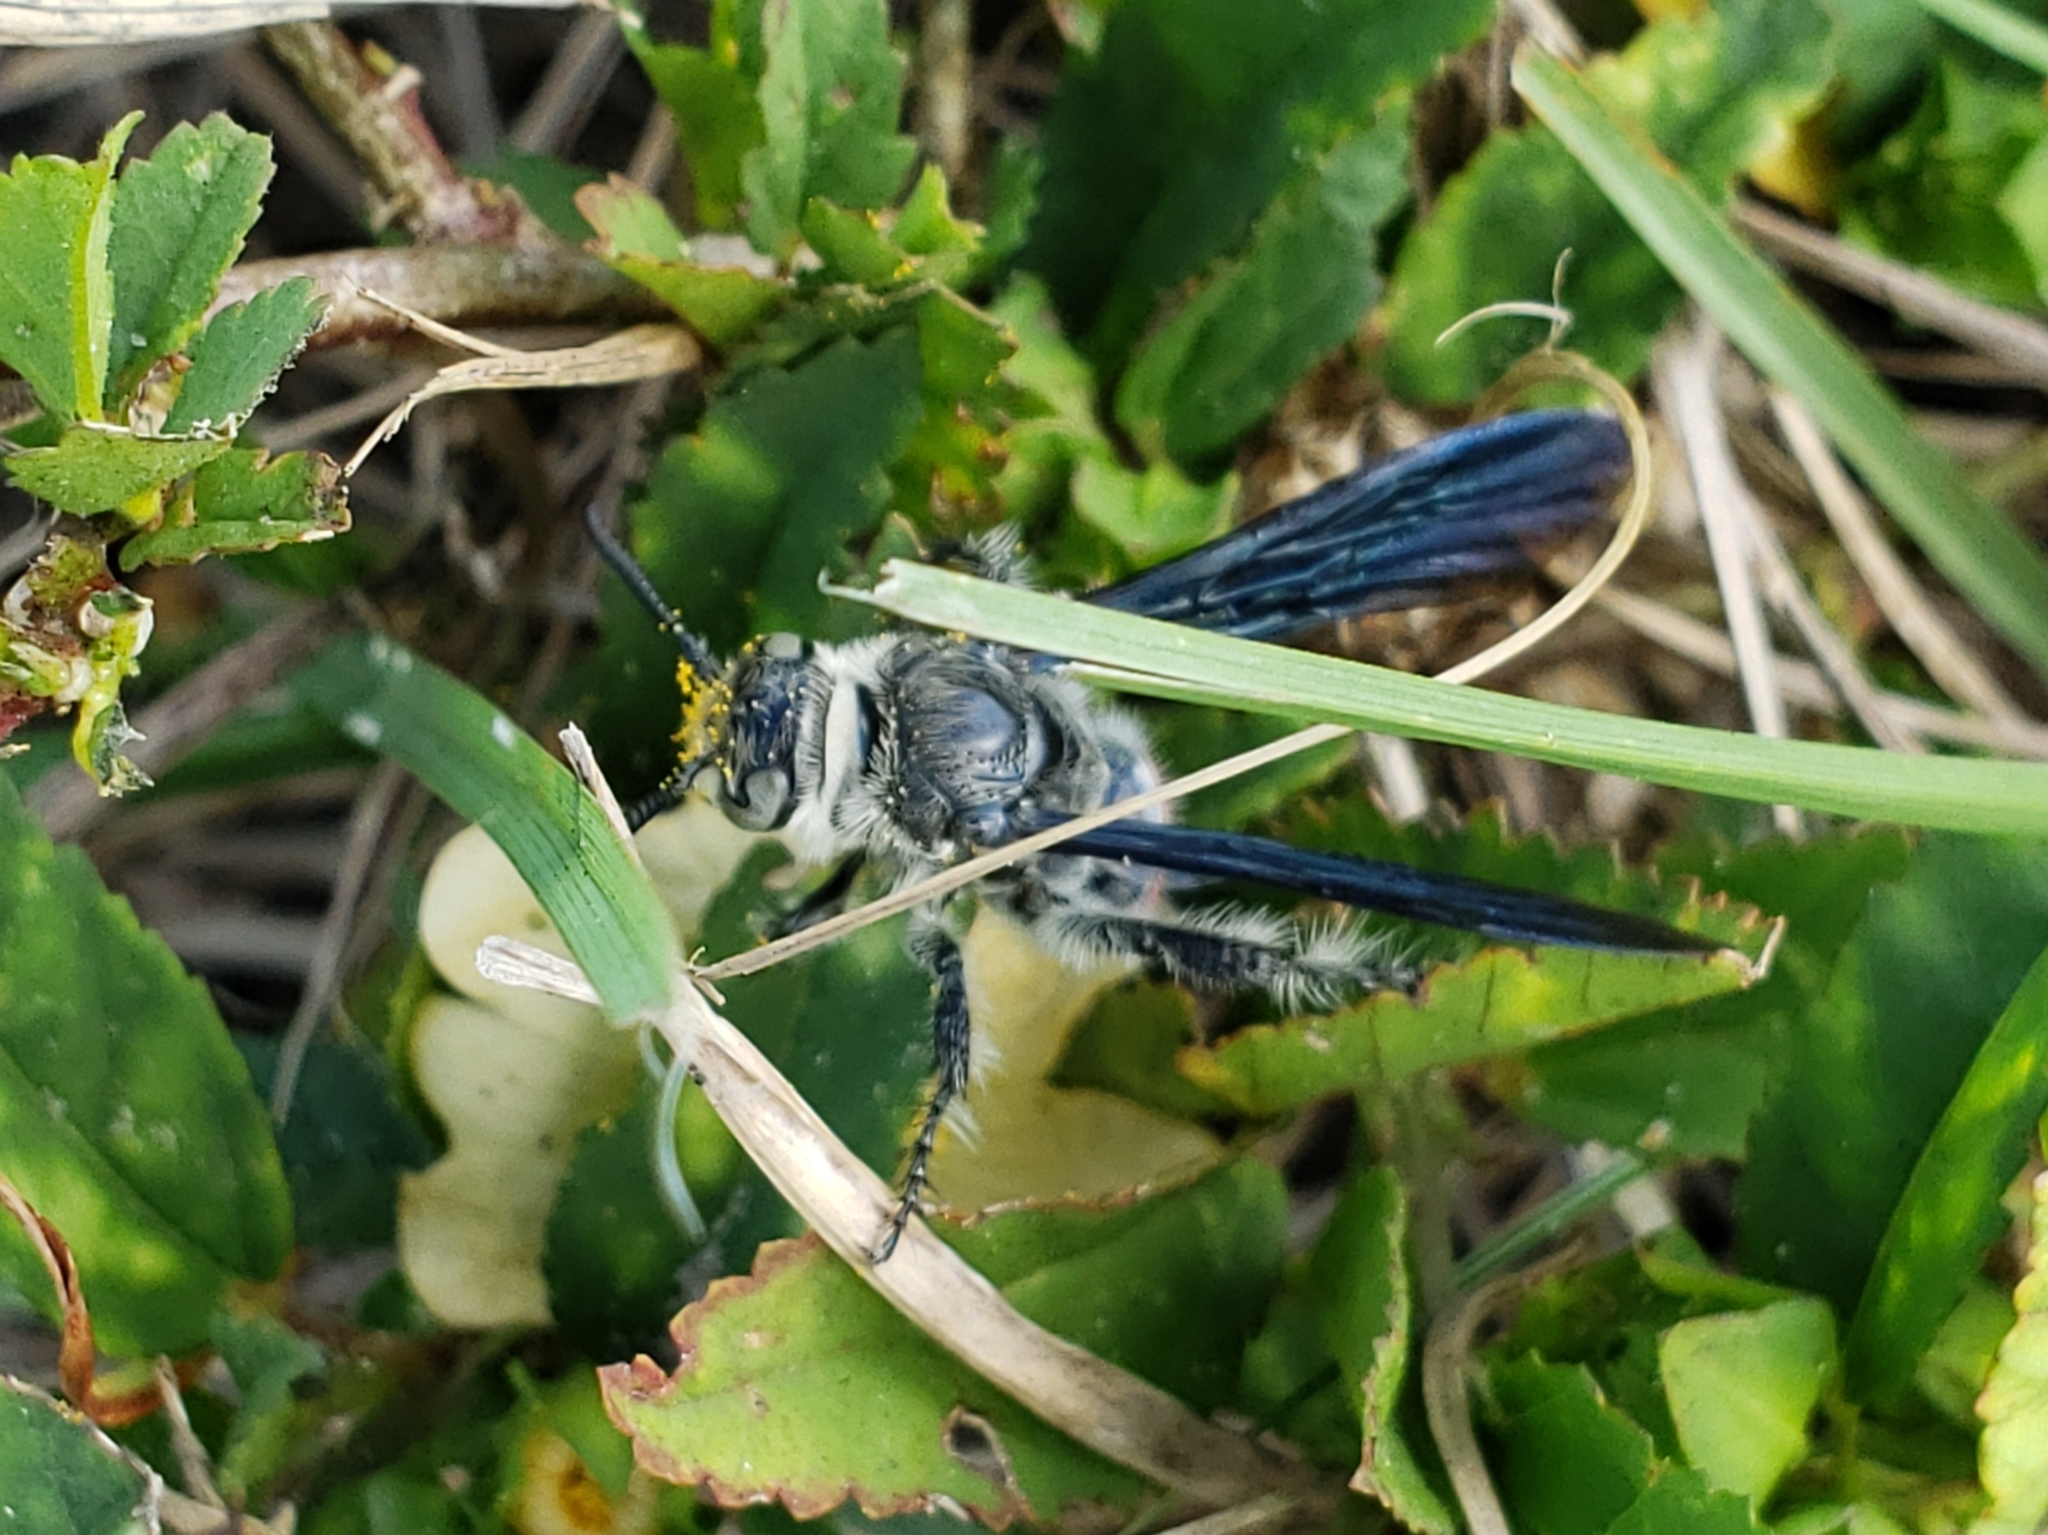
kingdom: Animalia
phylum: Arthropoda
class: Insecta
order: Hymenoptera
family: Scoliidae
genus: Dielis
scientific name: Dielis dorsata
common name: Scoliid wasp
